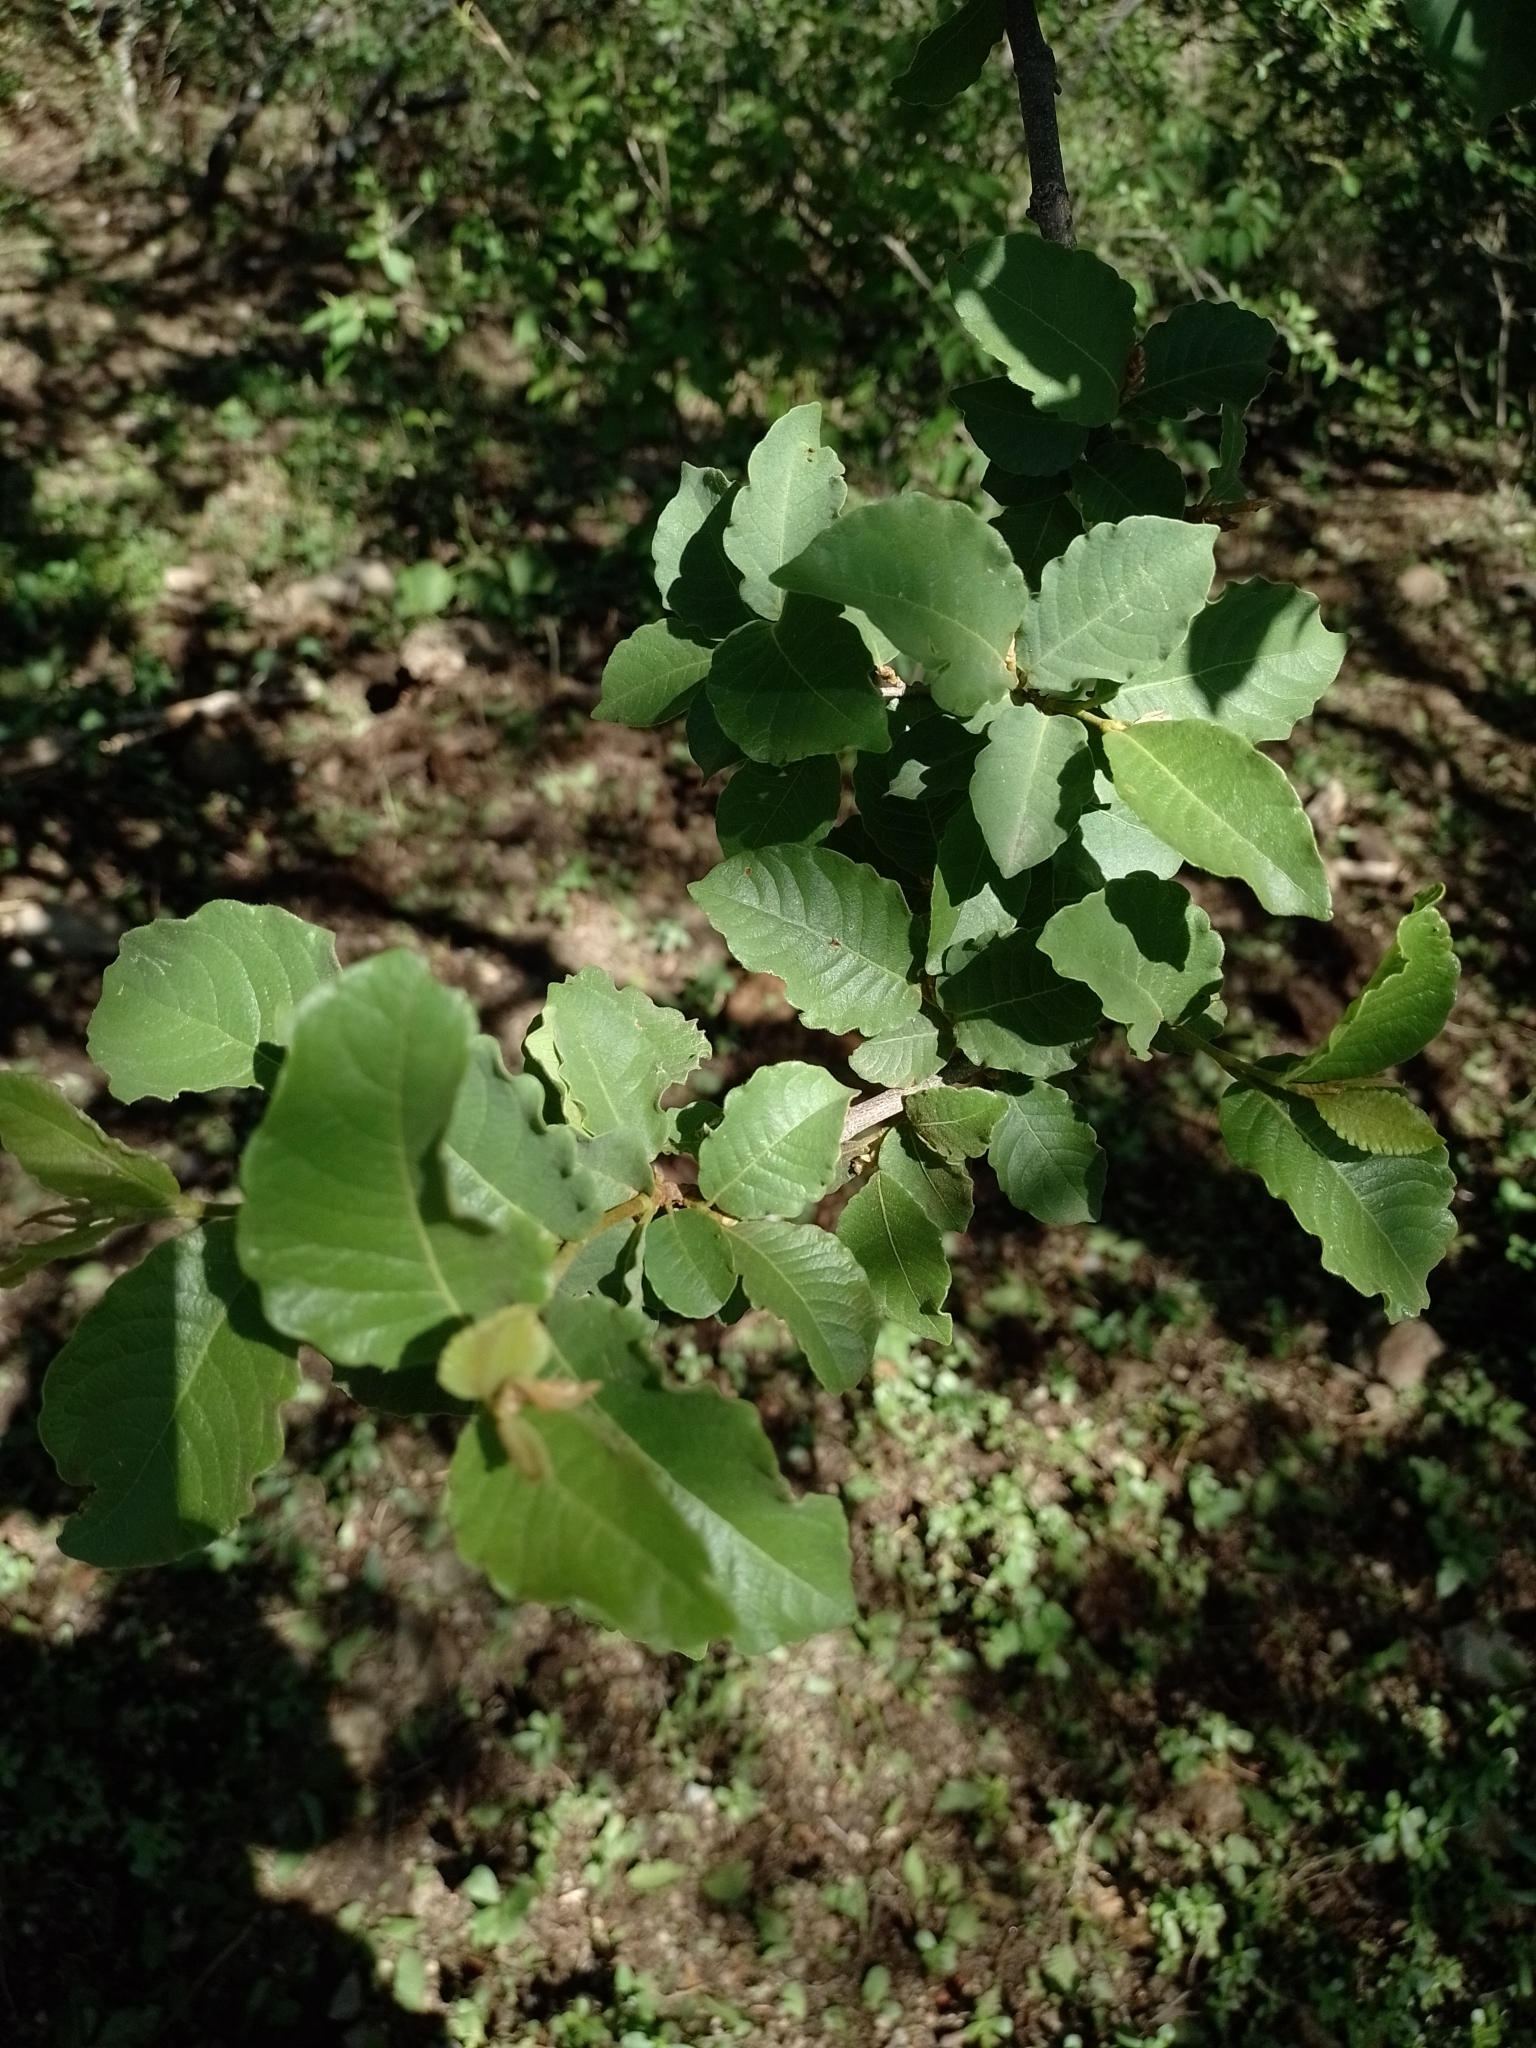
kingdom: Plantae
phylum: Tracheophyta
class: Magnoliopsida
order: Caryophyllales
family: Polygonaceae
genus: Ruprechtia
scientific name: Ruprechtia apetala
